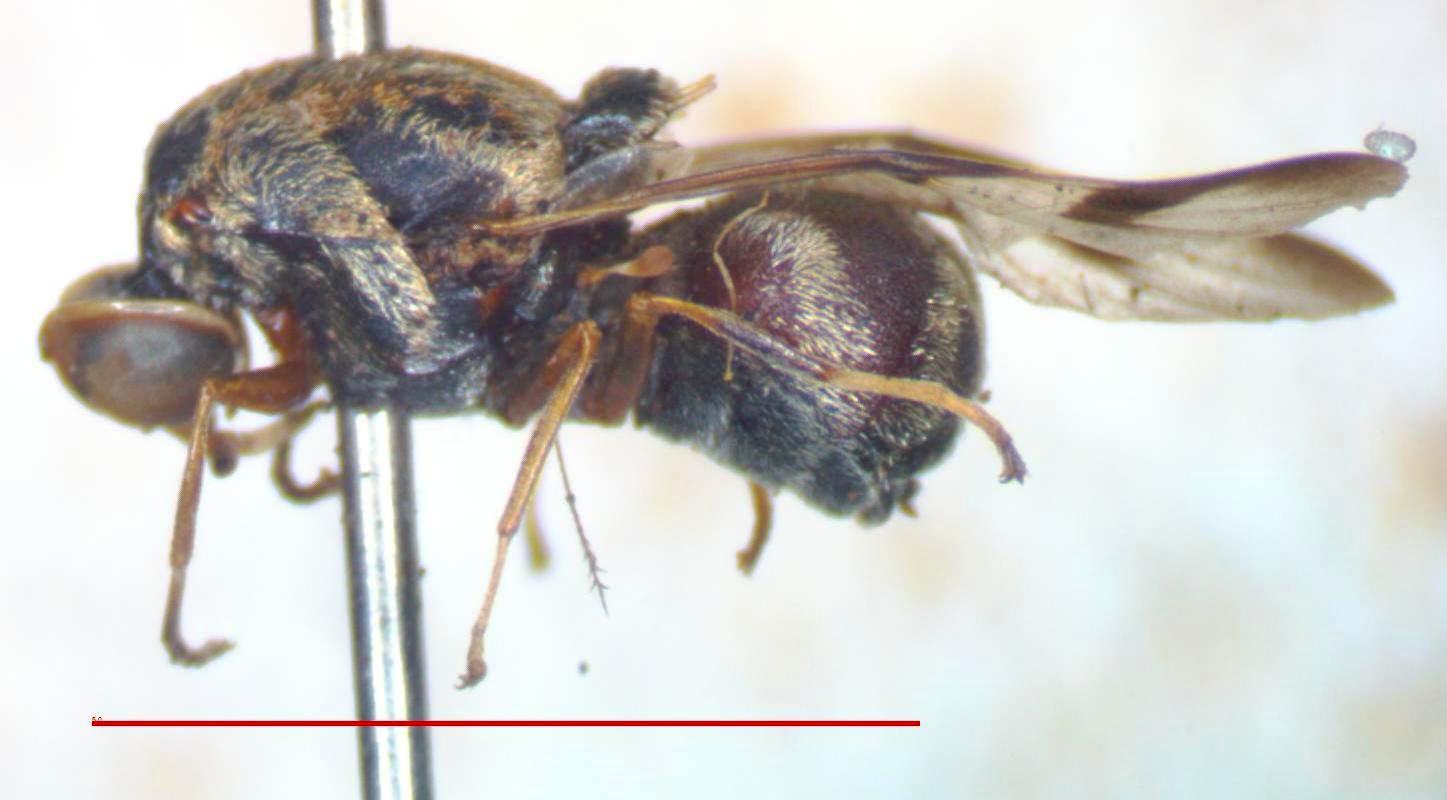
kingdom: Animalia
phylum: Arthropoda
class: Insecta
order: Diptera
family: Stratiomyidae
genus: Artemita
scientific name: Artemita podexargenteus
